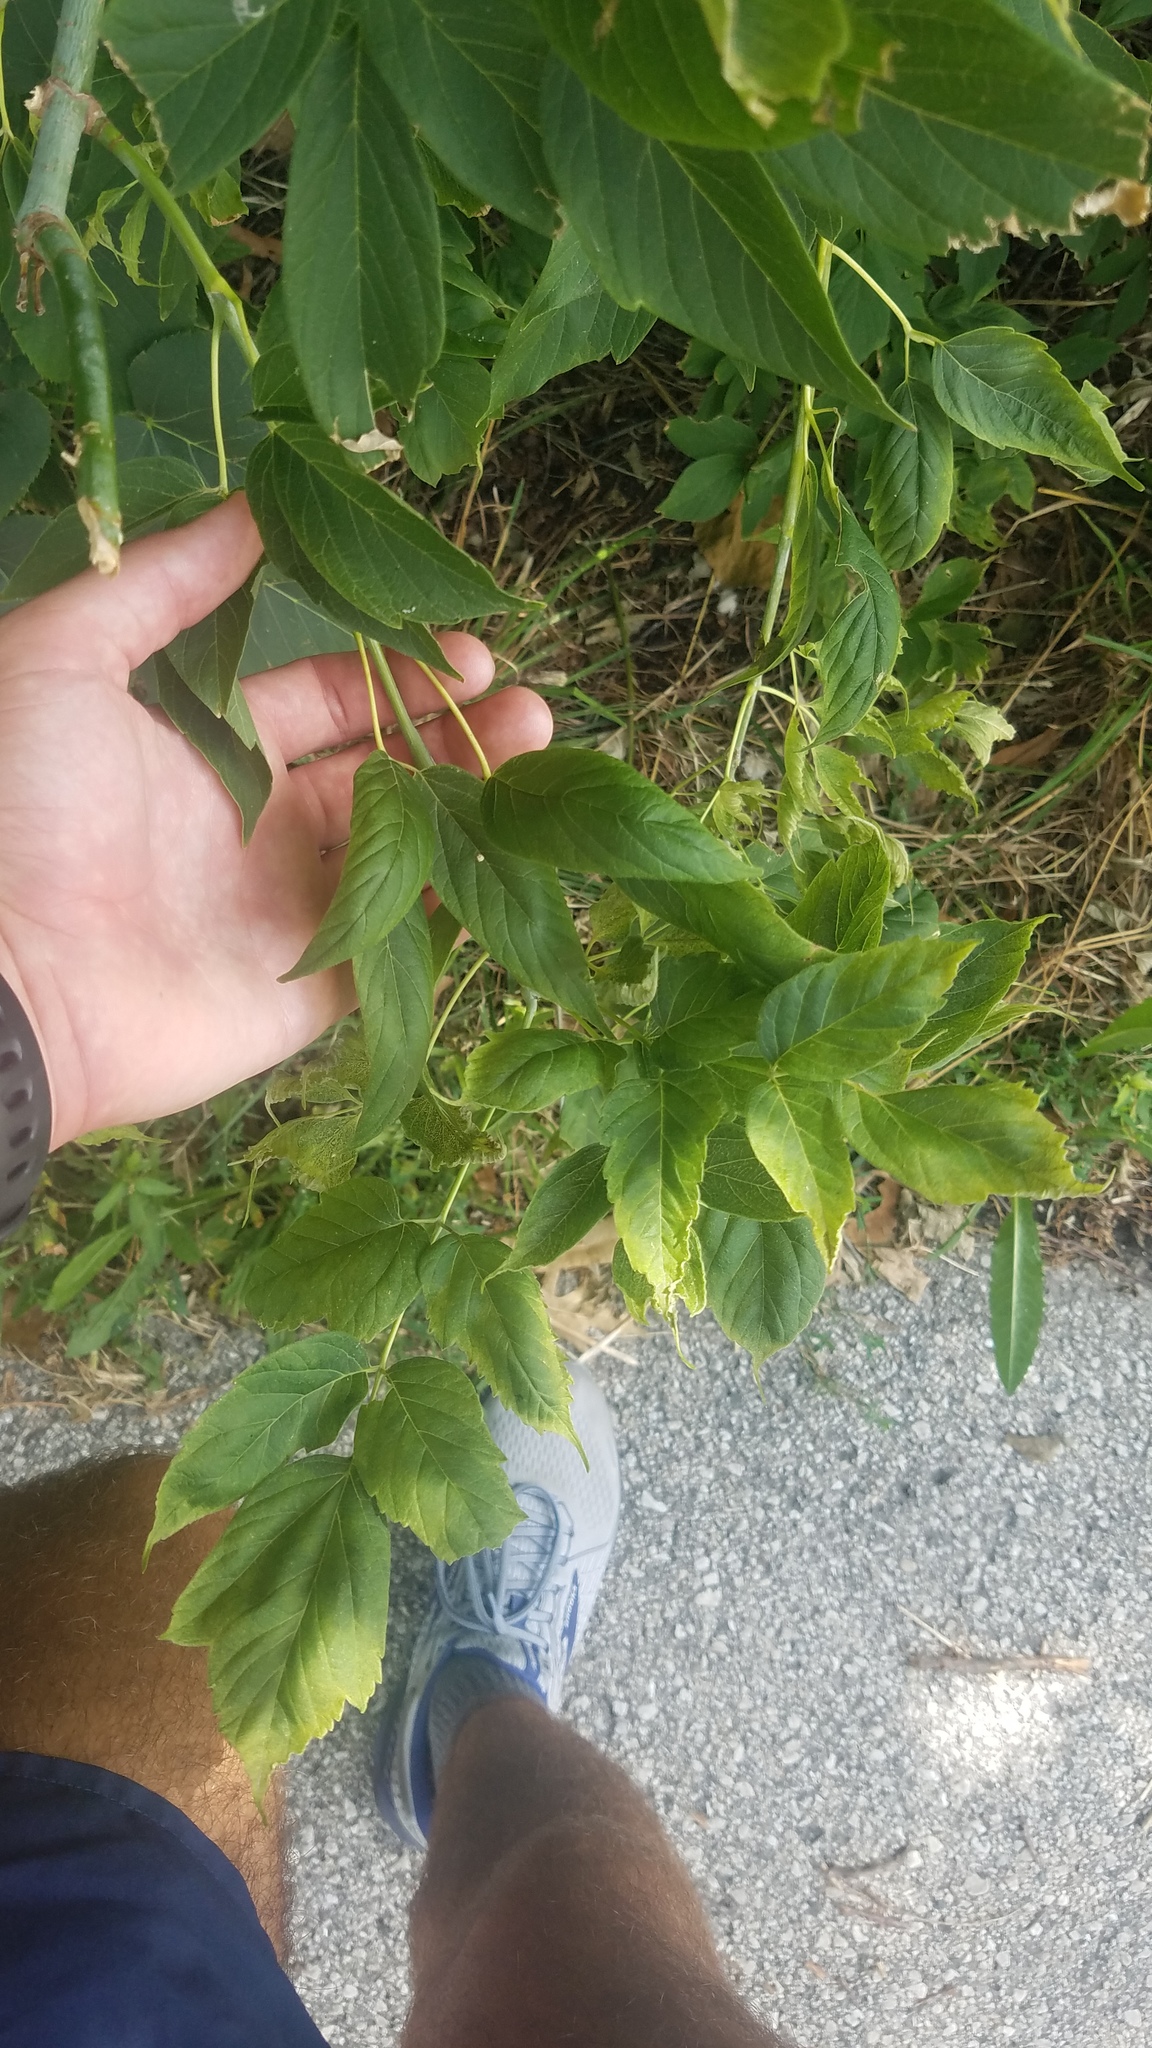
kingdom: Plantae
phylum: Tracheophyta
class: Magnoliopsida
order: Sapindales
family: Sapindaceae
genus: Acer
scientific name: Acer negundo
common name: Ashleaf maple
